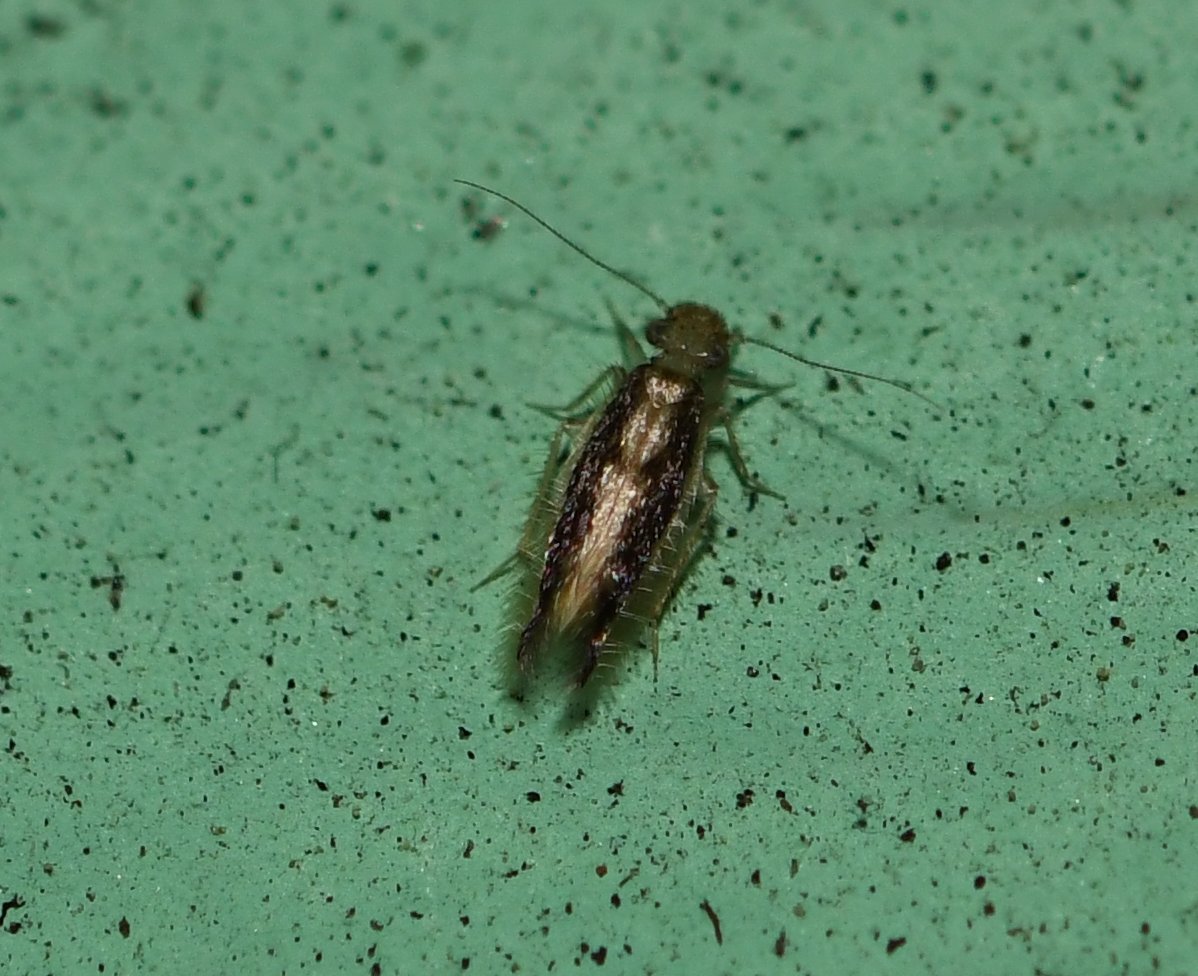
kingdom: Animalia
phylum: Arthropoda
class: Insecta
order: Psocodea
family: Lepidopsocidae
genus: Echmepteryx
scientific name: Echmepteryx madagascariensis
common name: Bark lice
